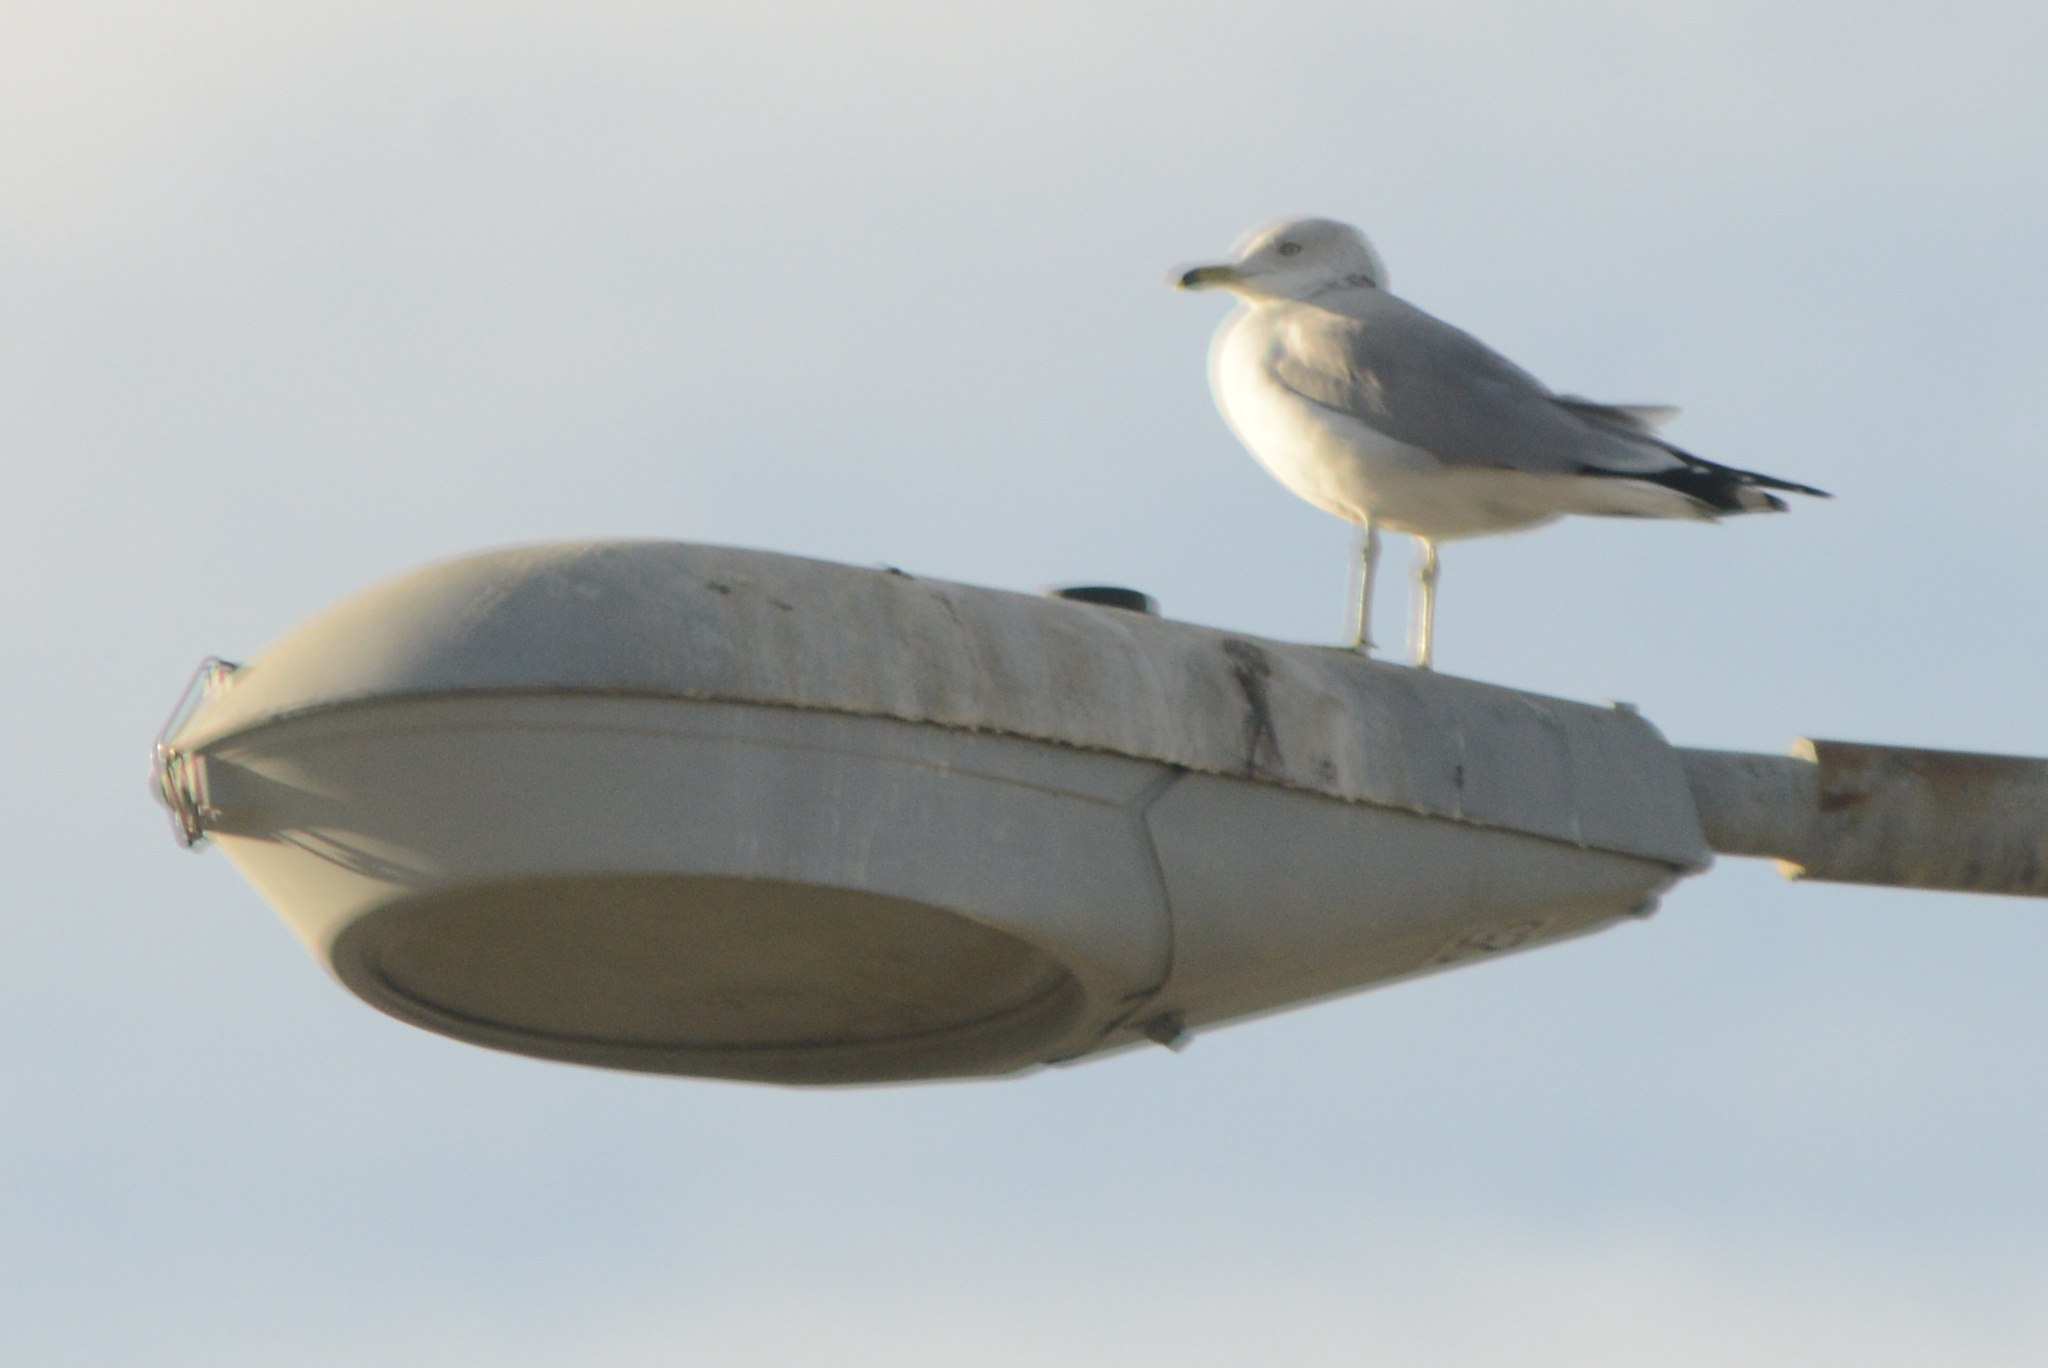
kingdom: Animalia
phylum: Chordata
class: Aves
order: Charadriiformes
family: Laridae
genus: Larus
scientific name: Larus delawarensis
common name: Ring-billed gull
